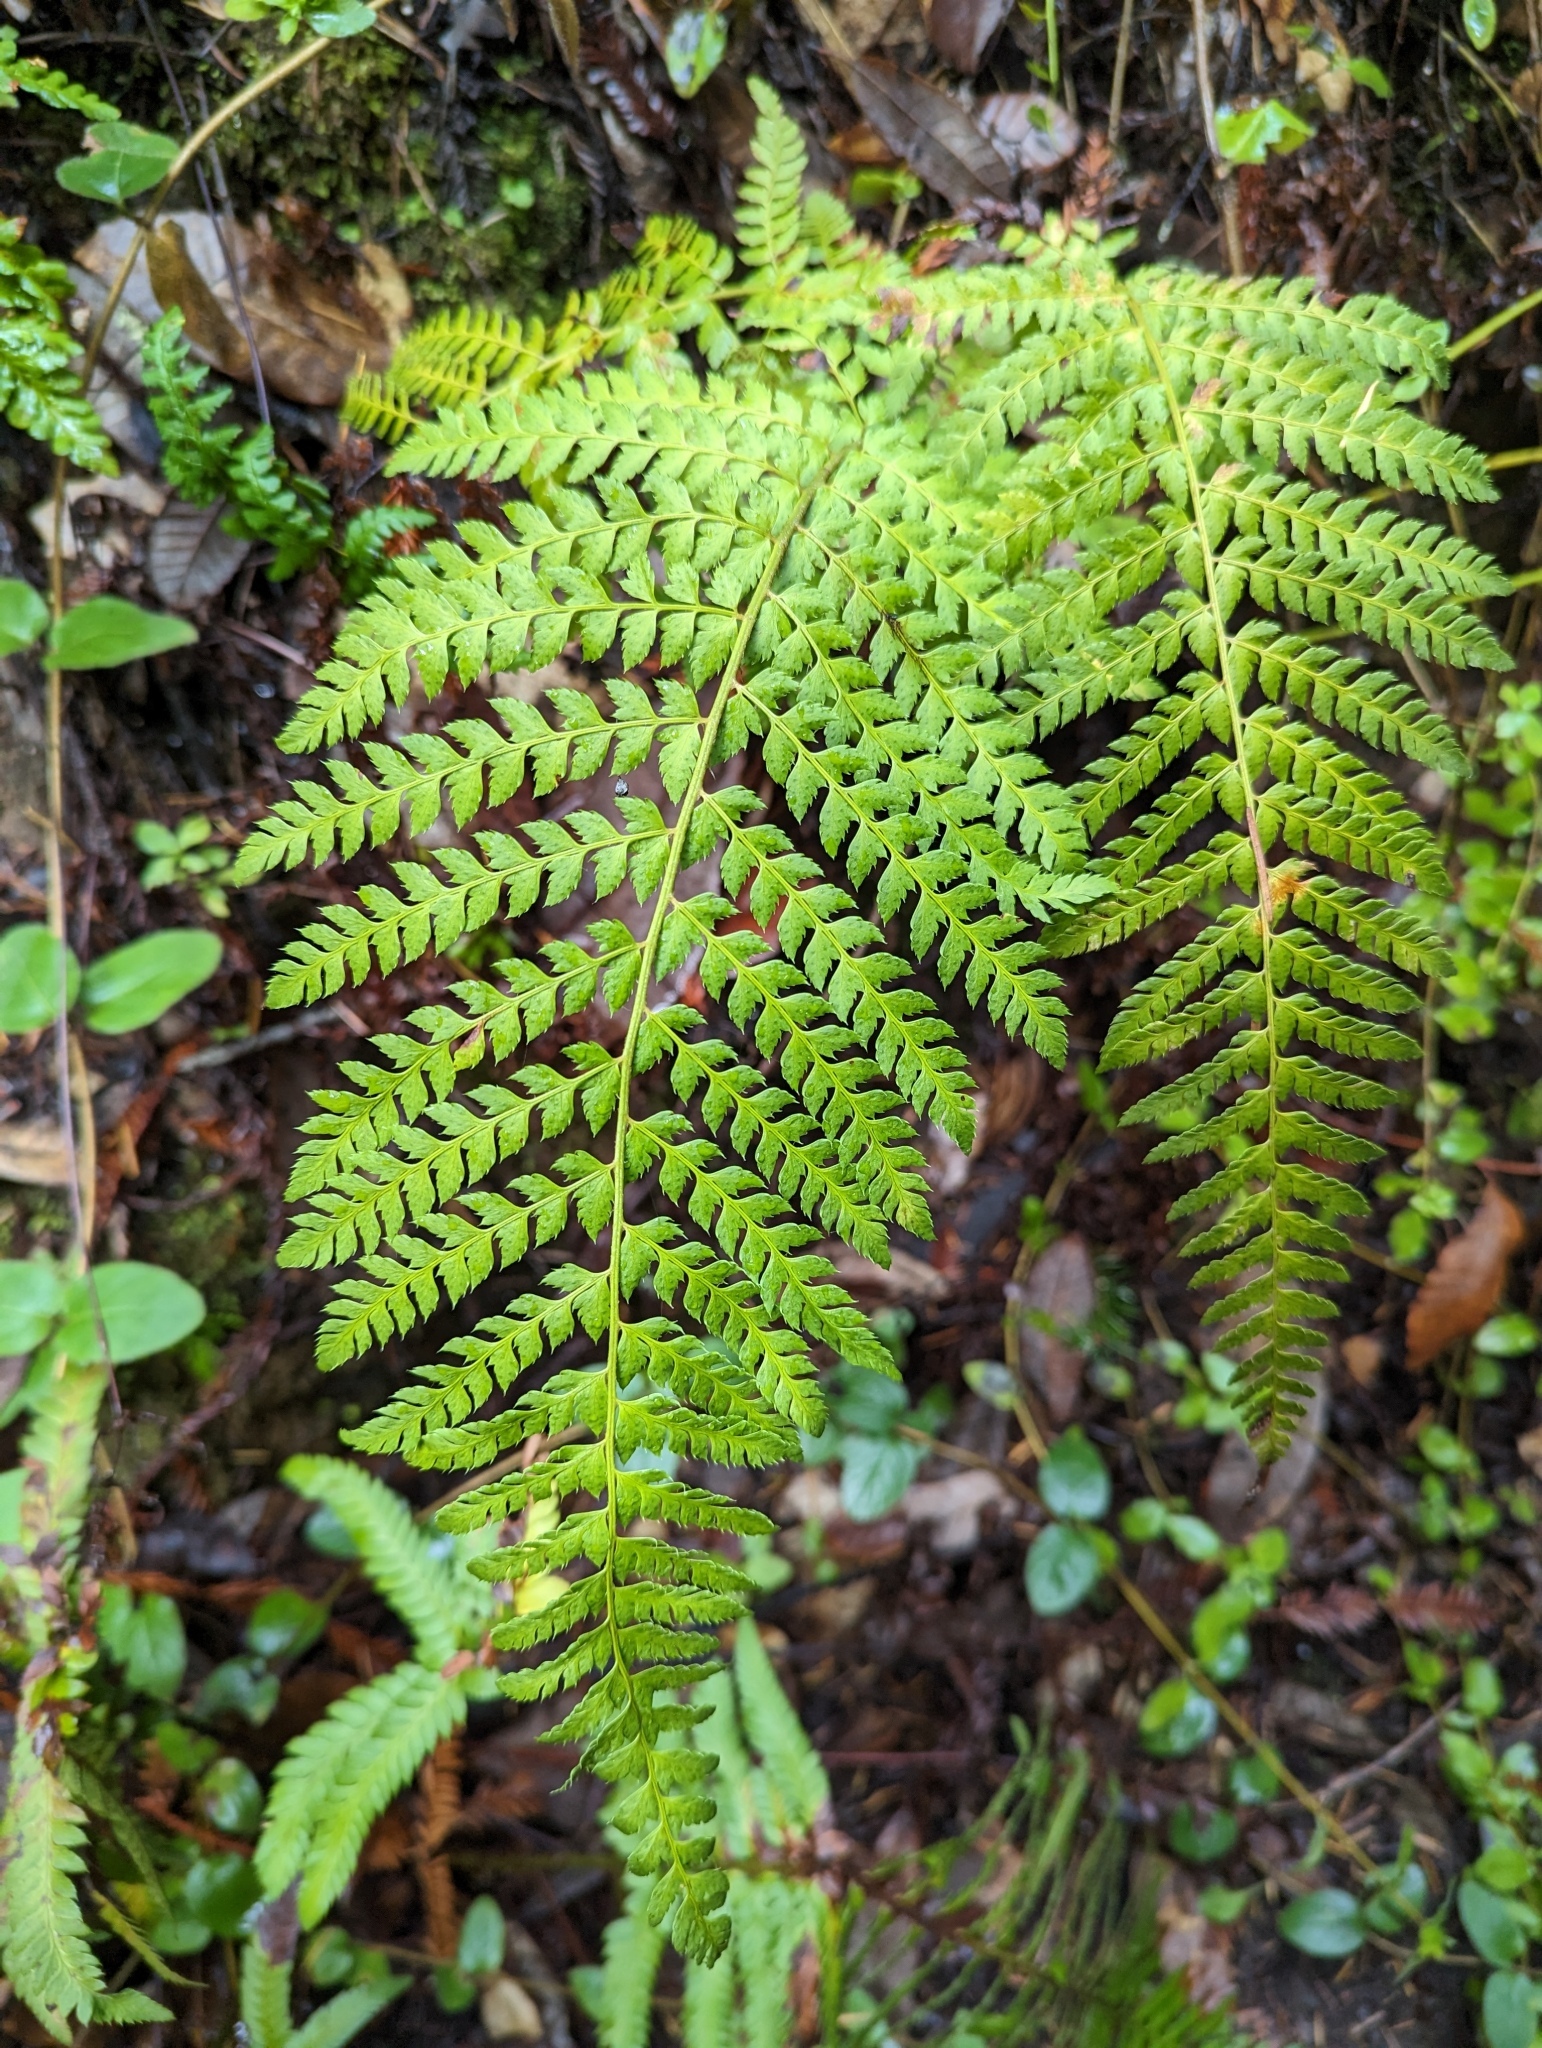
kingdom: Plantae
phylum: Tracheophyta
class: Polypodiopsida
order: Polypodiales
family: Dryopteridaceae
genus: Polystichum
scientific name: Polystichum dudleyi
